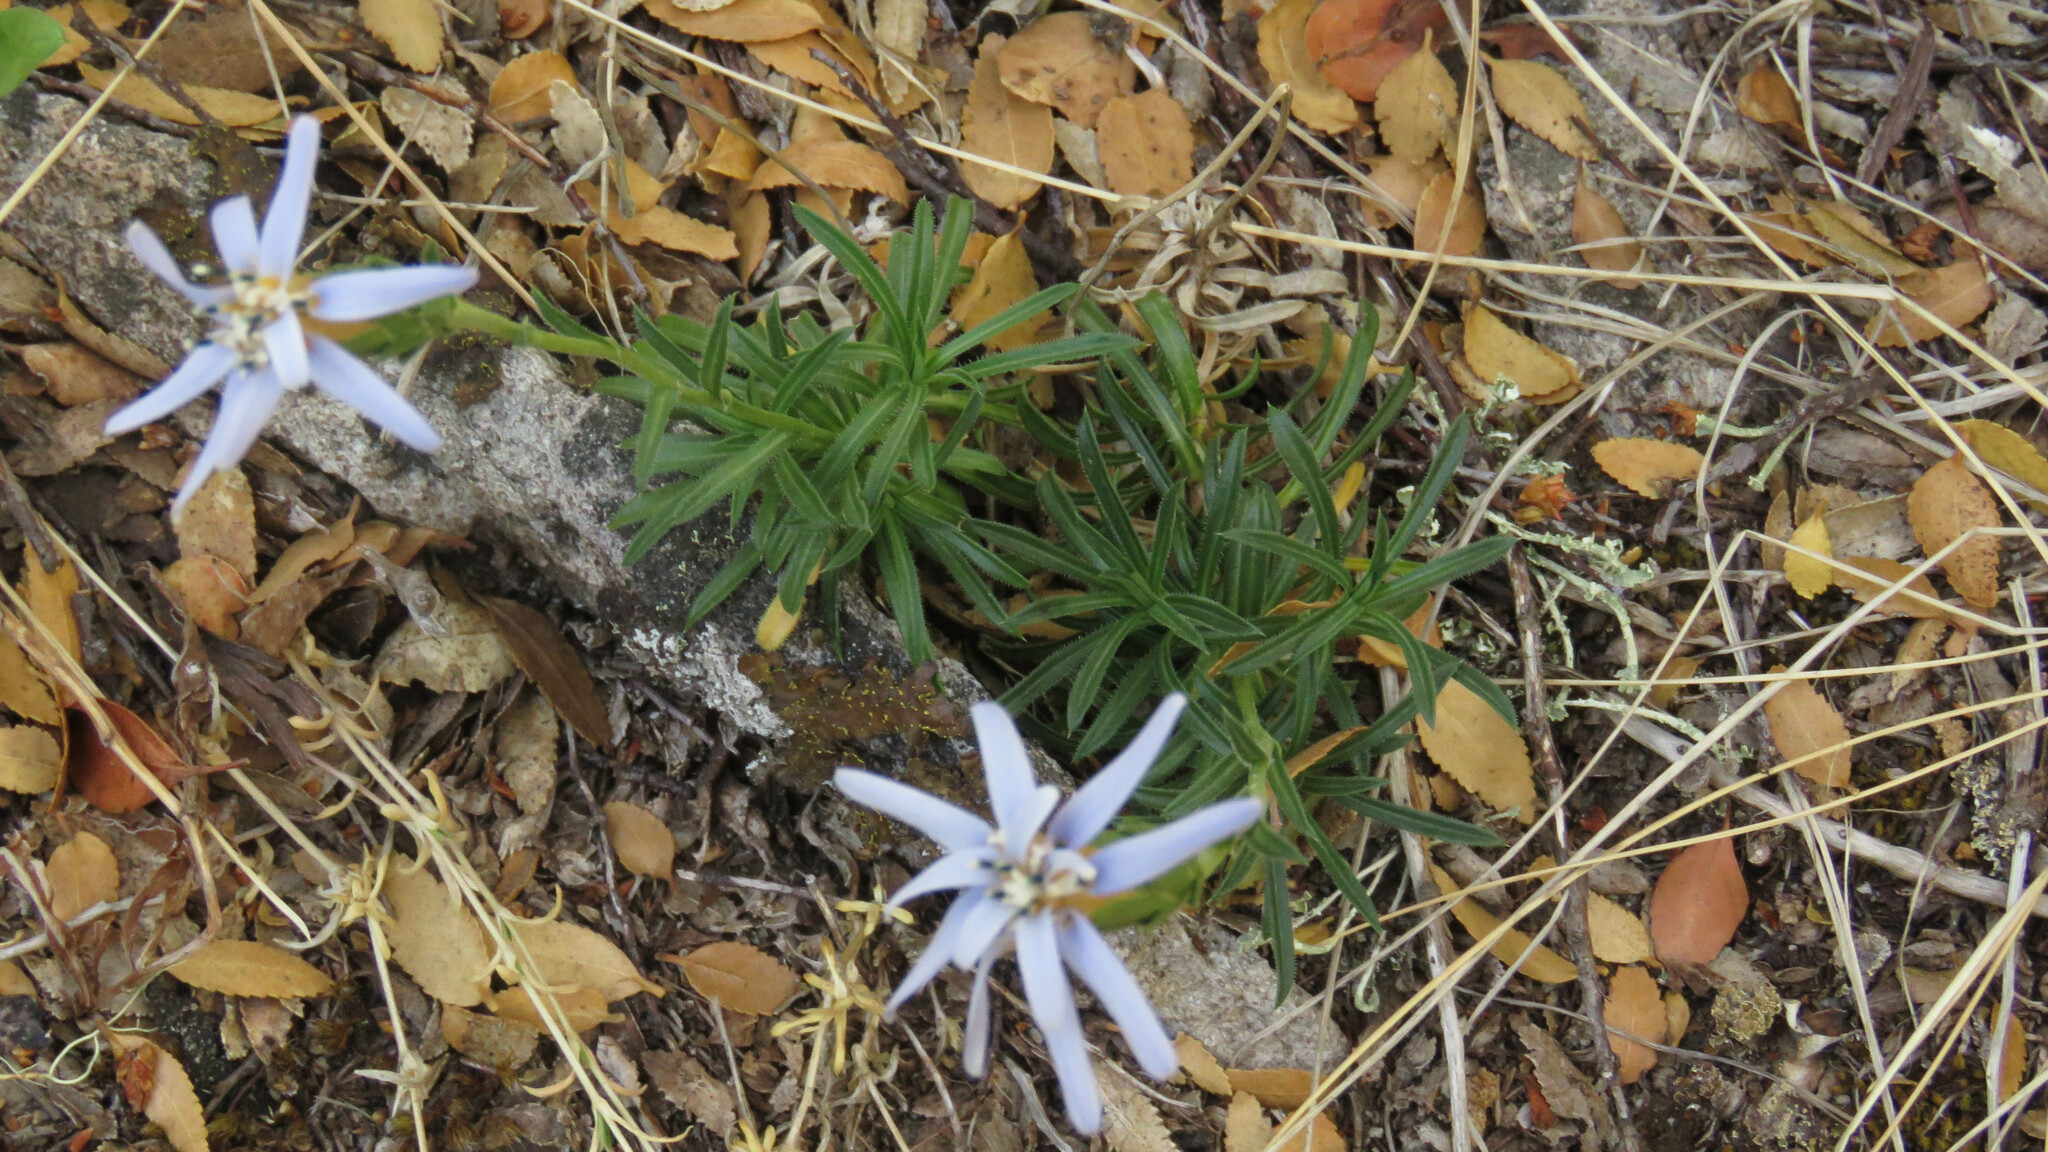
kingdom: Plantae
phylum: Tracheophyta
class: Magnoliopsida
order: Asterales
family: Asteraceae
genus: Perezia
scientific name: Perezia recurvata
